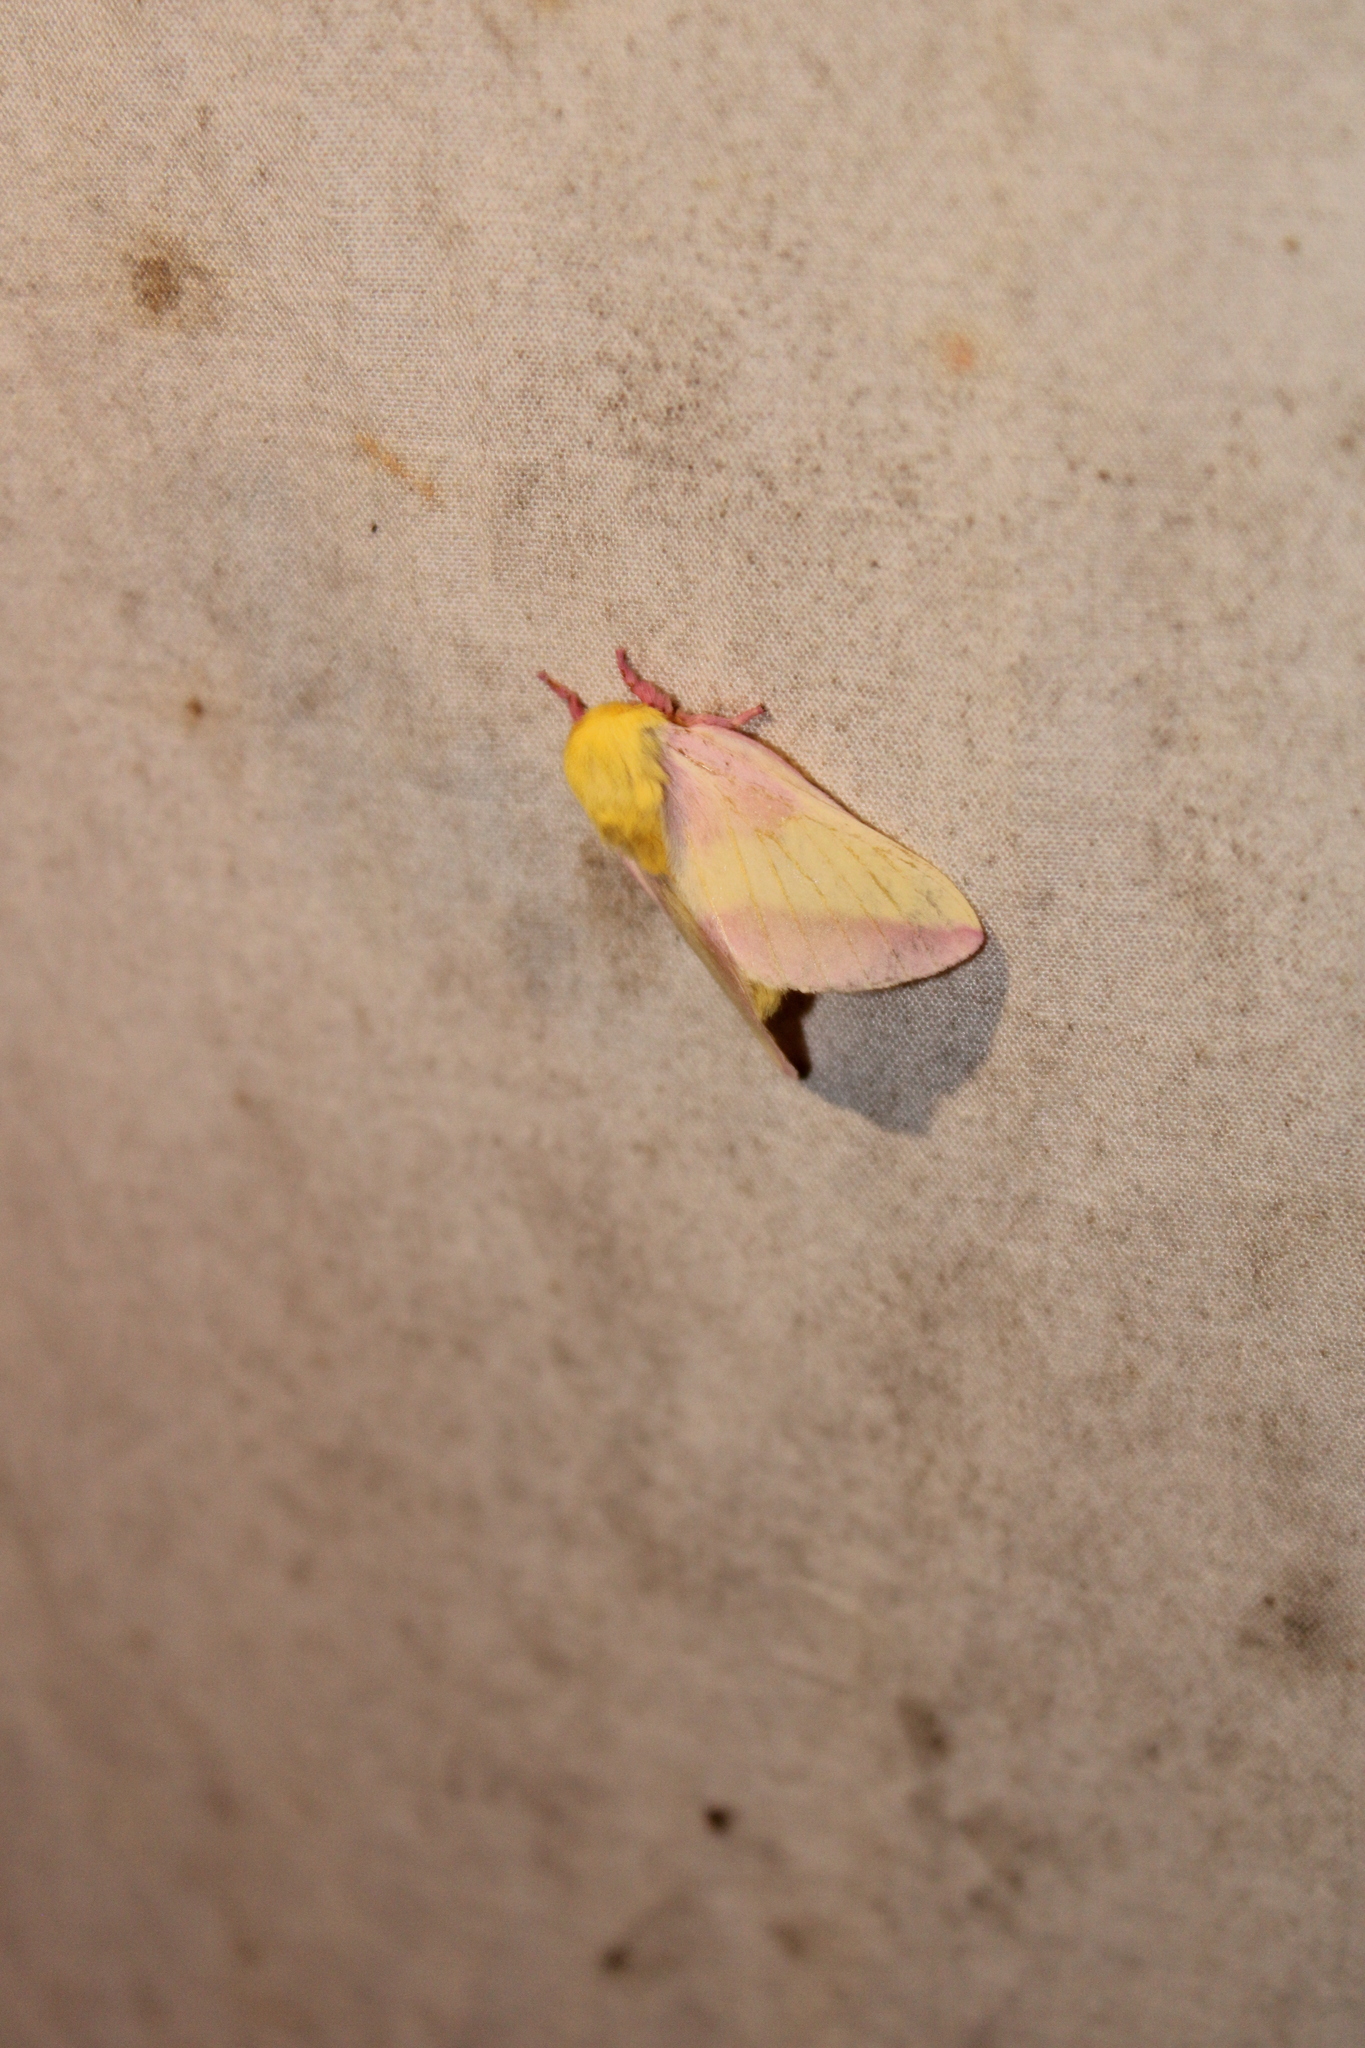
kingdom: Animalia
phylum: Arthropoda
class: Insecta
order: Lepidoptera
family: Saturniidae
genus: Dryocampa
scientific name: Dryocampa rubicunda
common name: Rosy maple moth
